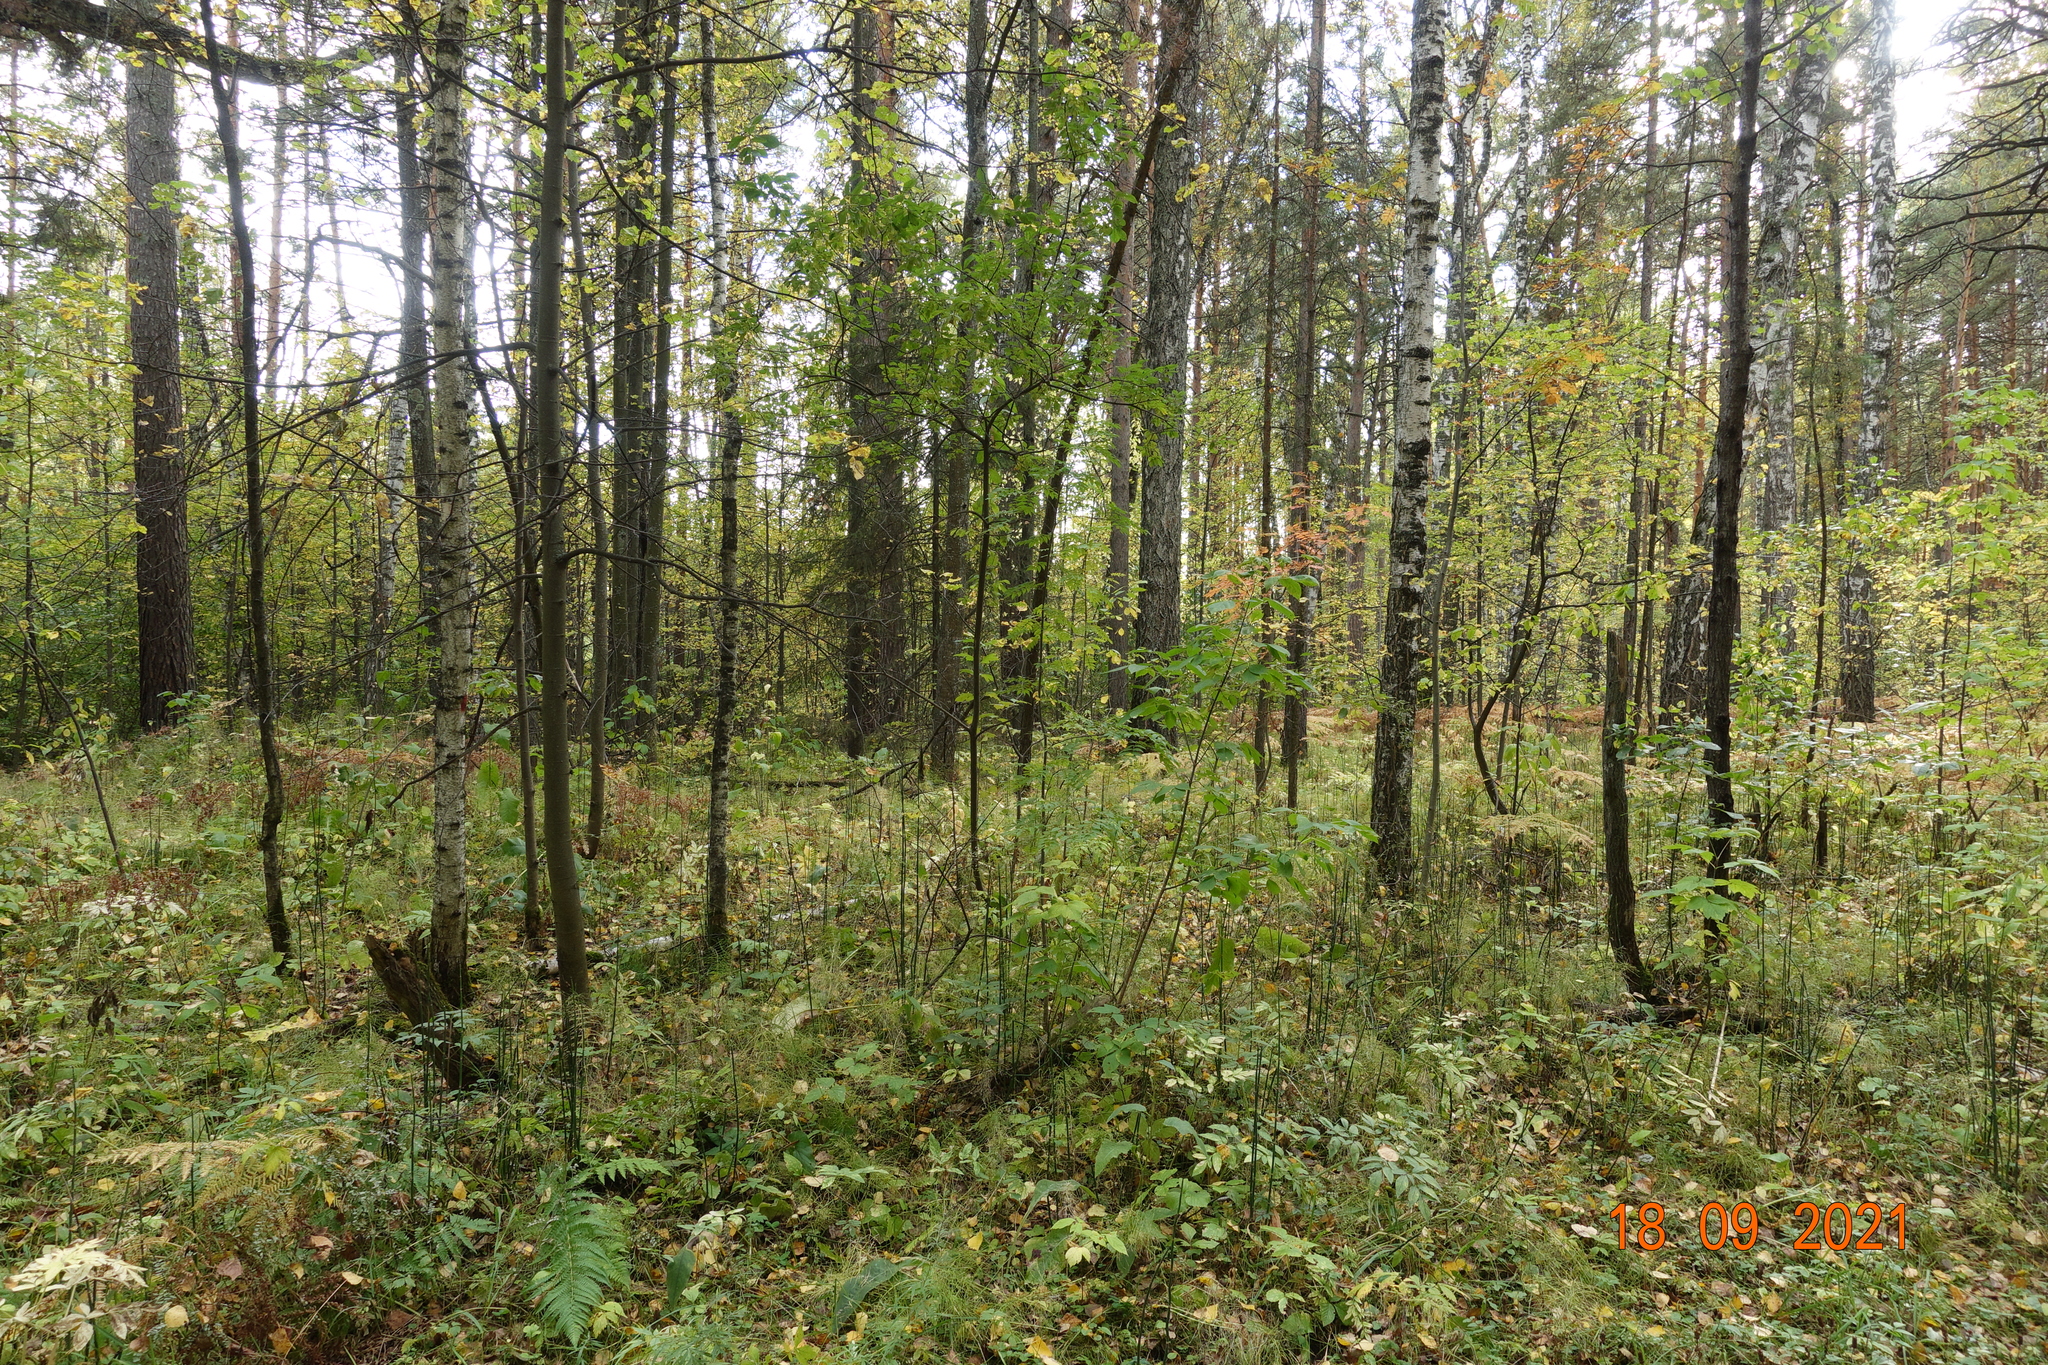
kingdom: Plantae
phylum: Tracheophyta
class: Pinopsida
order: Pinales
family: Pinaceae
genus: Pinus
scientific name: Pinus sylvestris
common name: Scots pine
